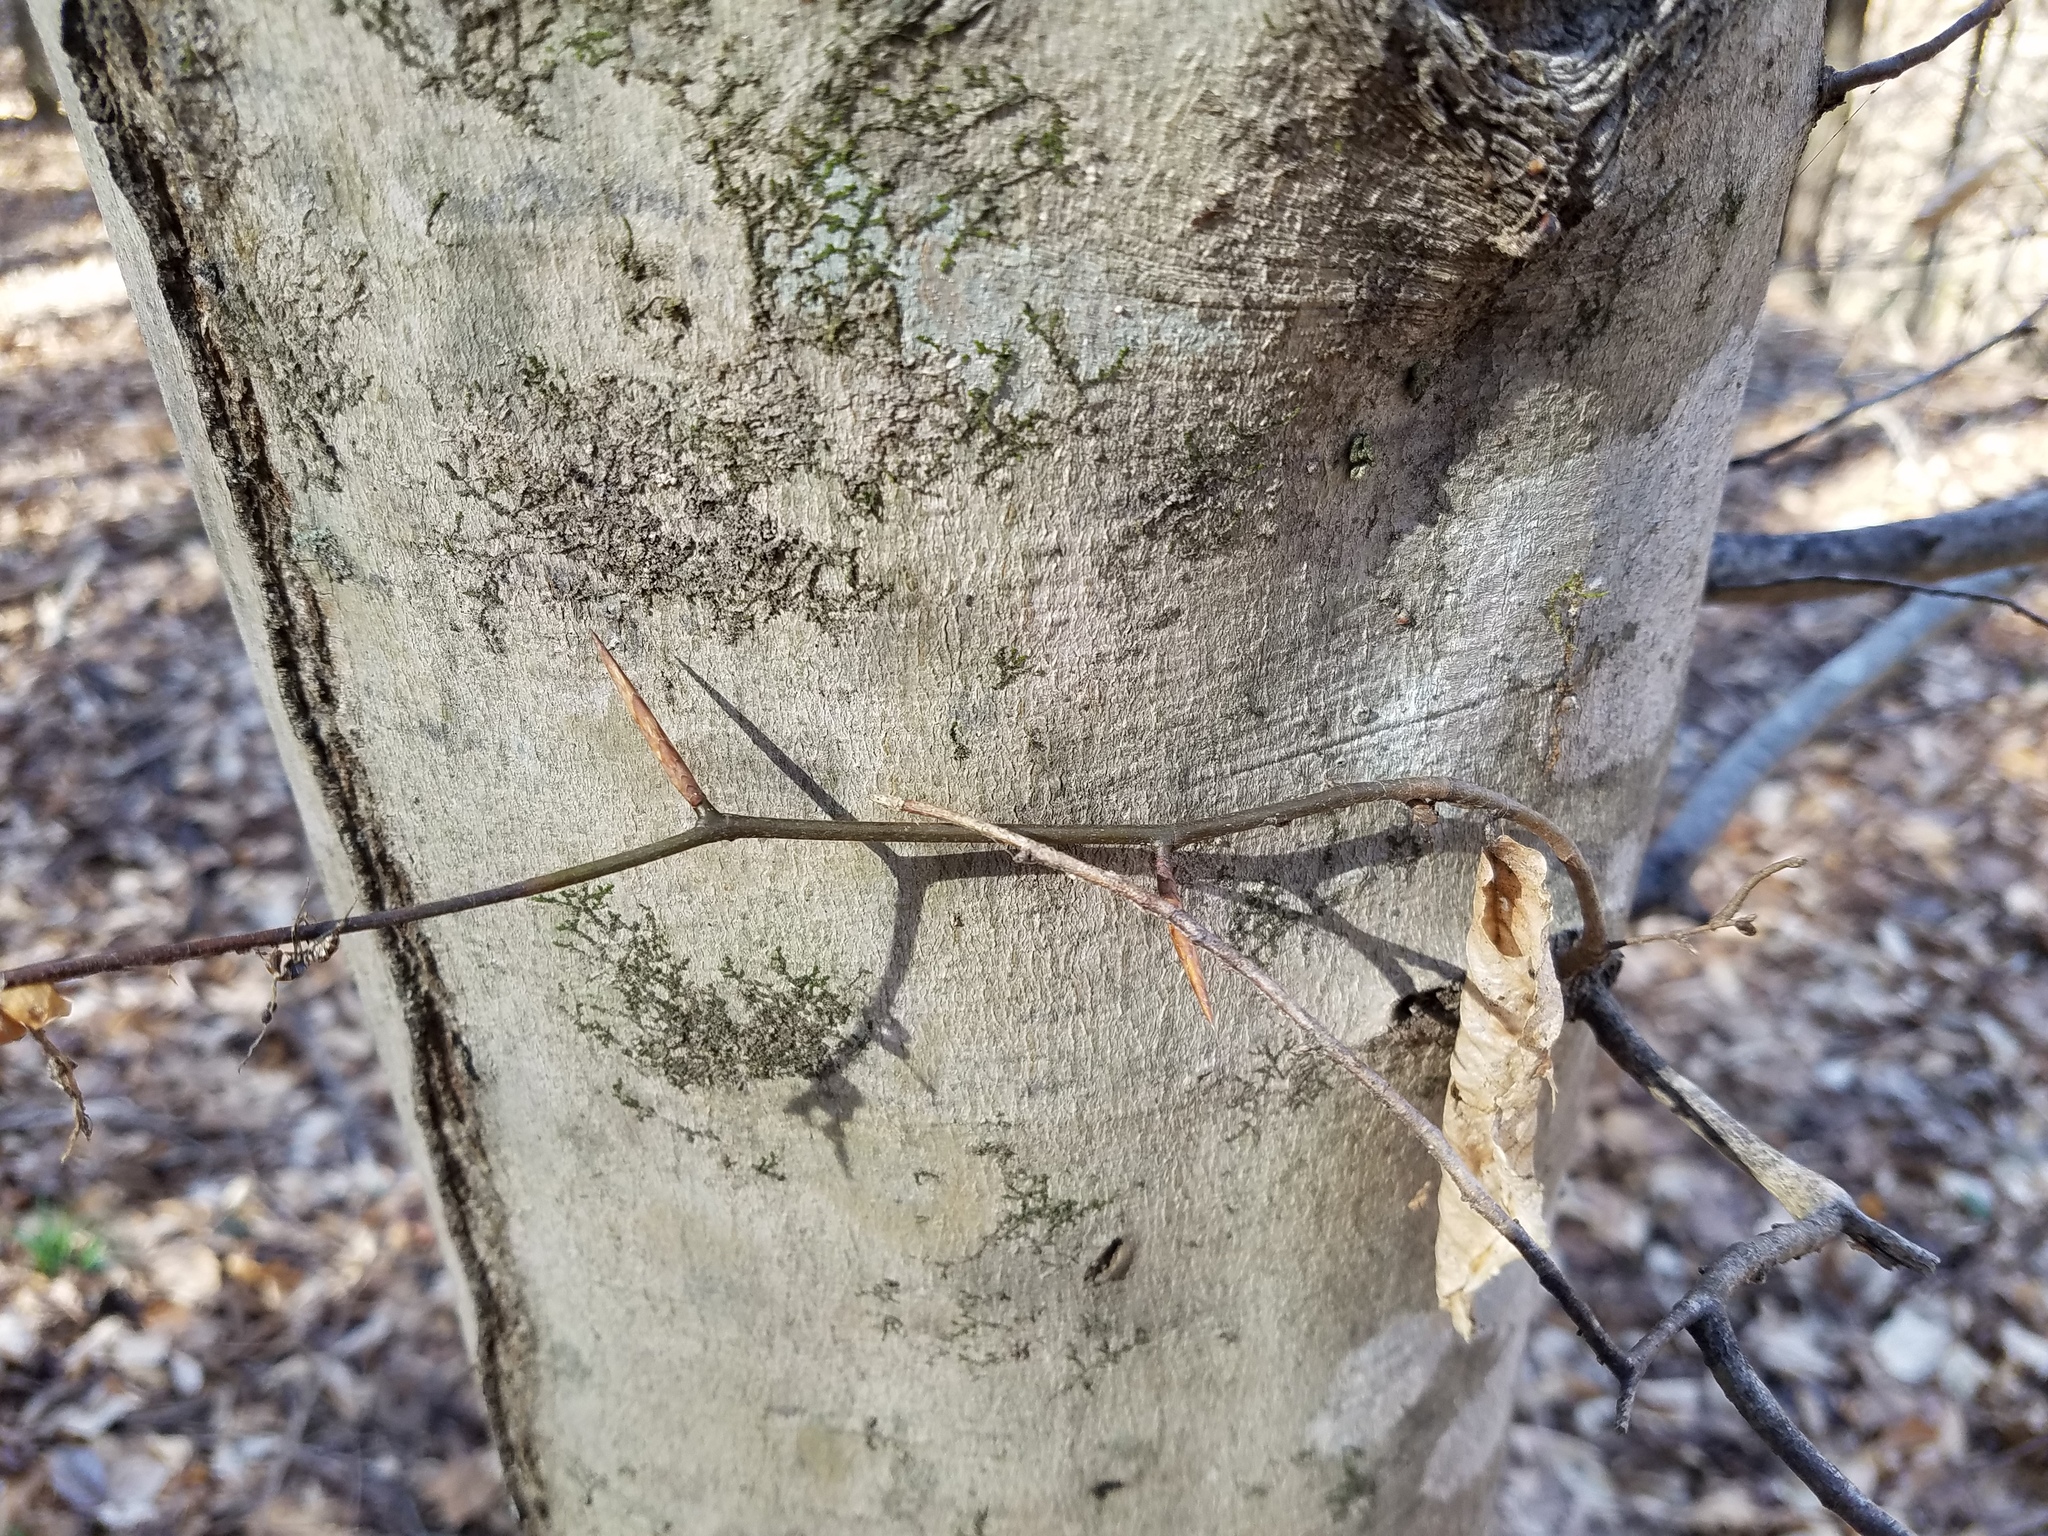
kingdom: Plantae
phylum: Tracheophyta
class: Magnoliopsida
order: Fagales
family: Fagaceae
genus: Fagus
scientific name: Fagus grandifolia
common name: American beech
